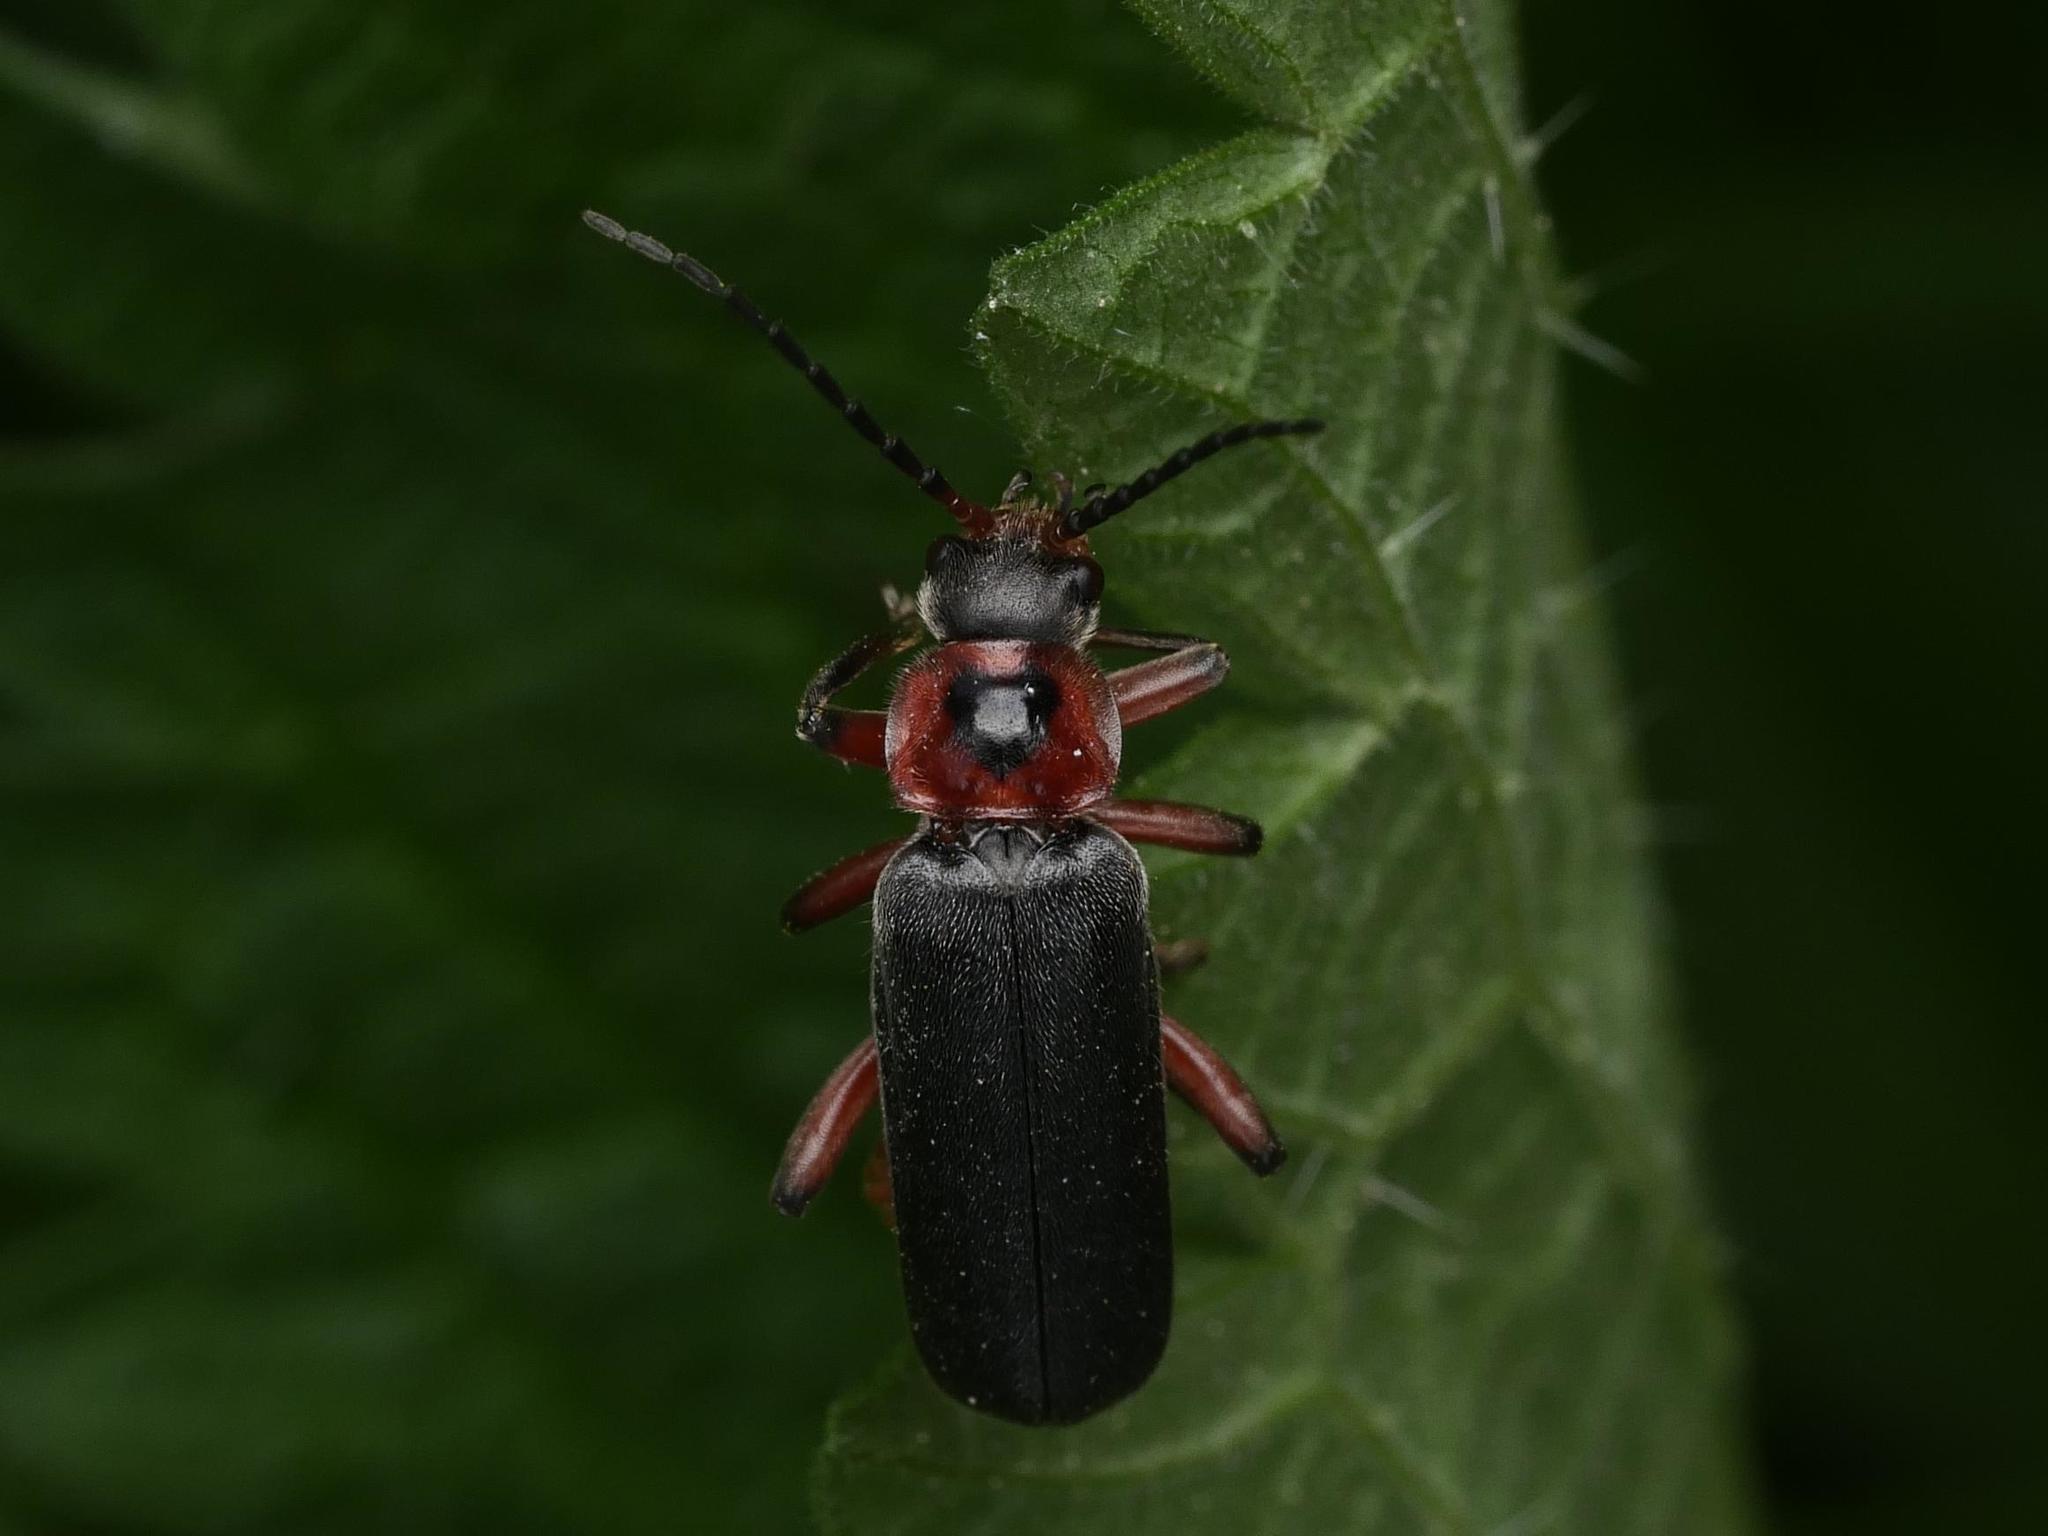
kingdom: Animalia
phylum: Arthropoda
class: Insecta
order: Coleoptera
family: Cantharidae
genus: Cantharis
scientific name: Cantharis rustica
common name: Soldier beetle
